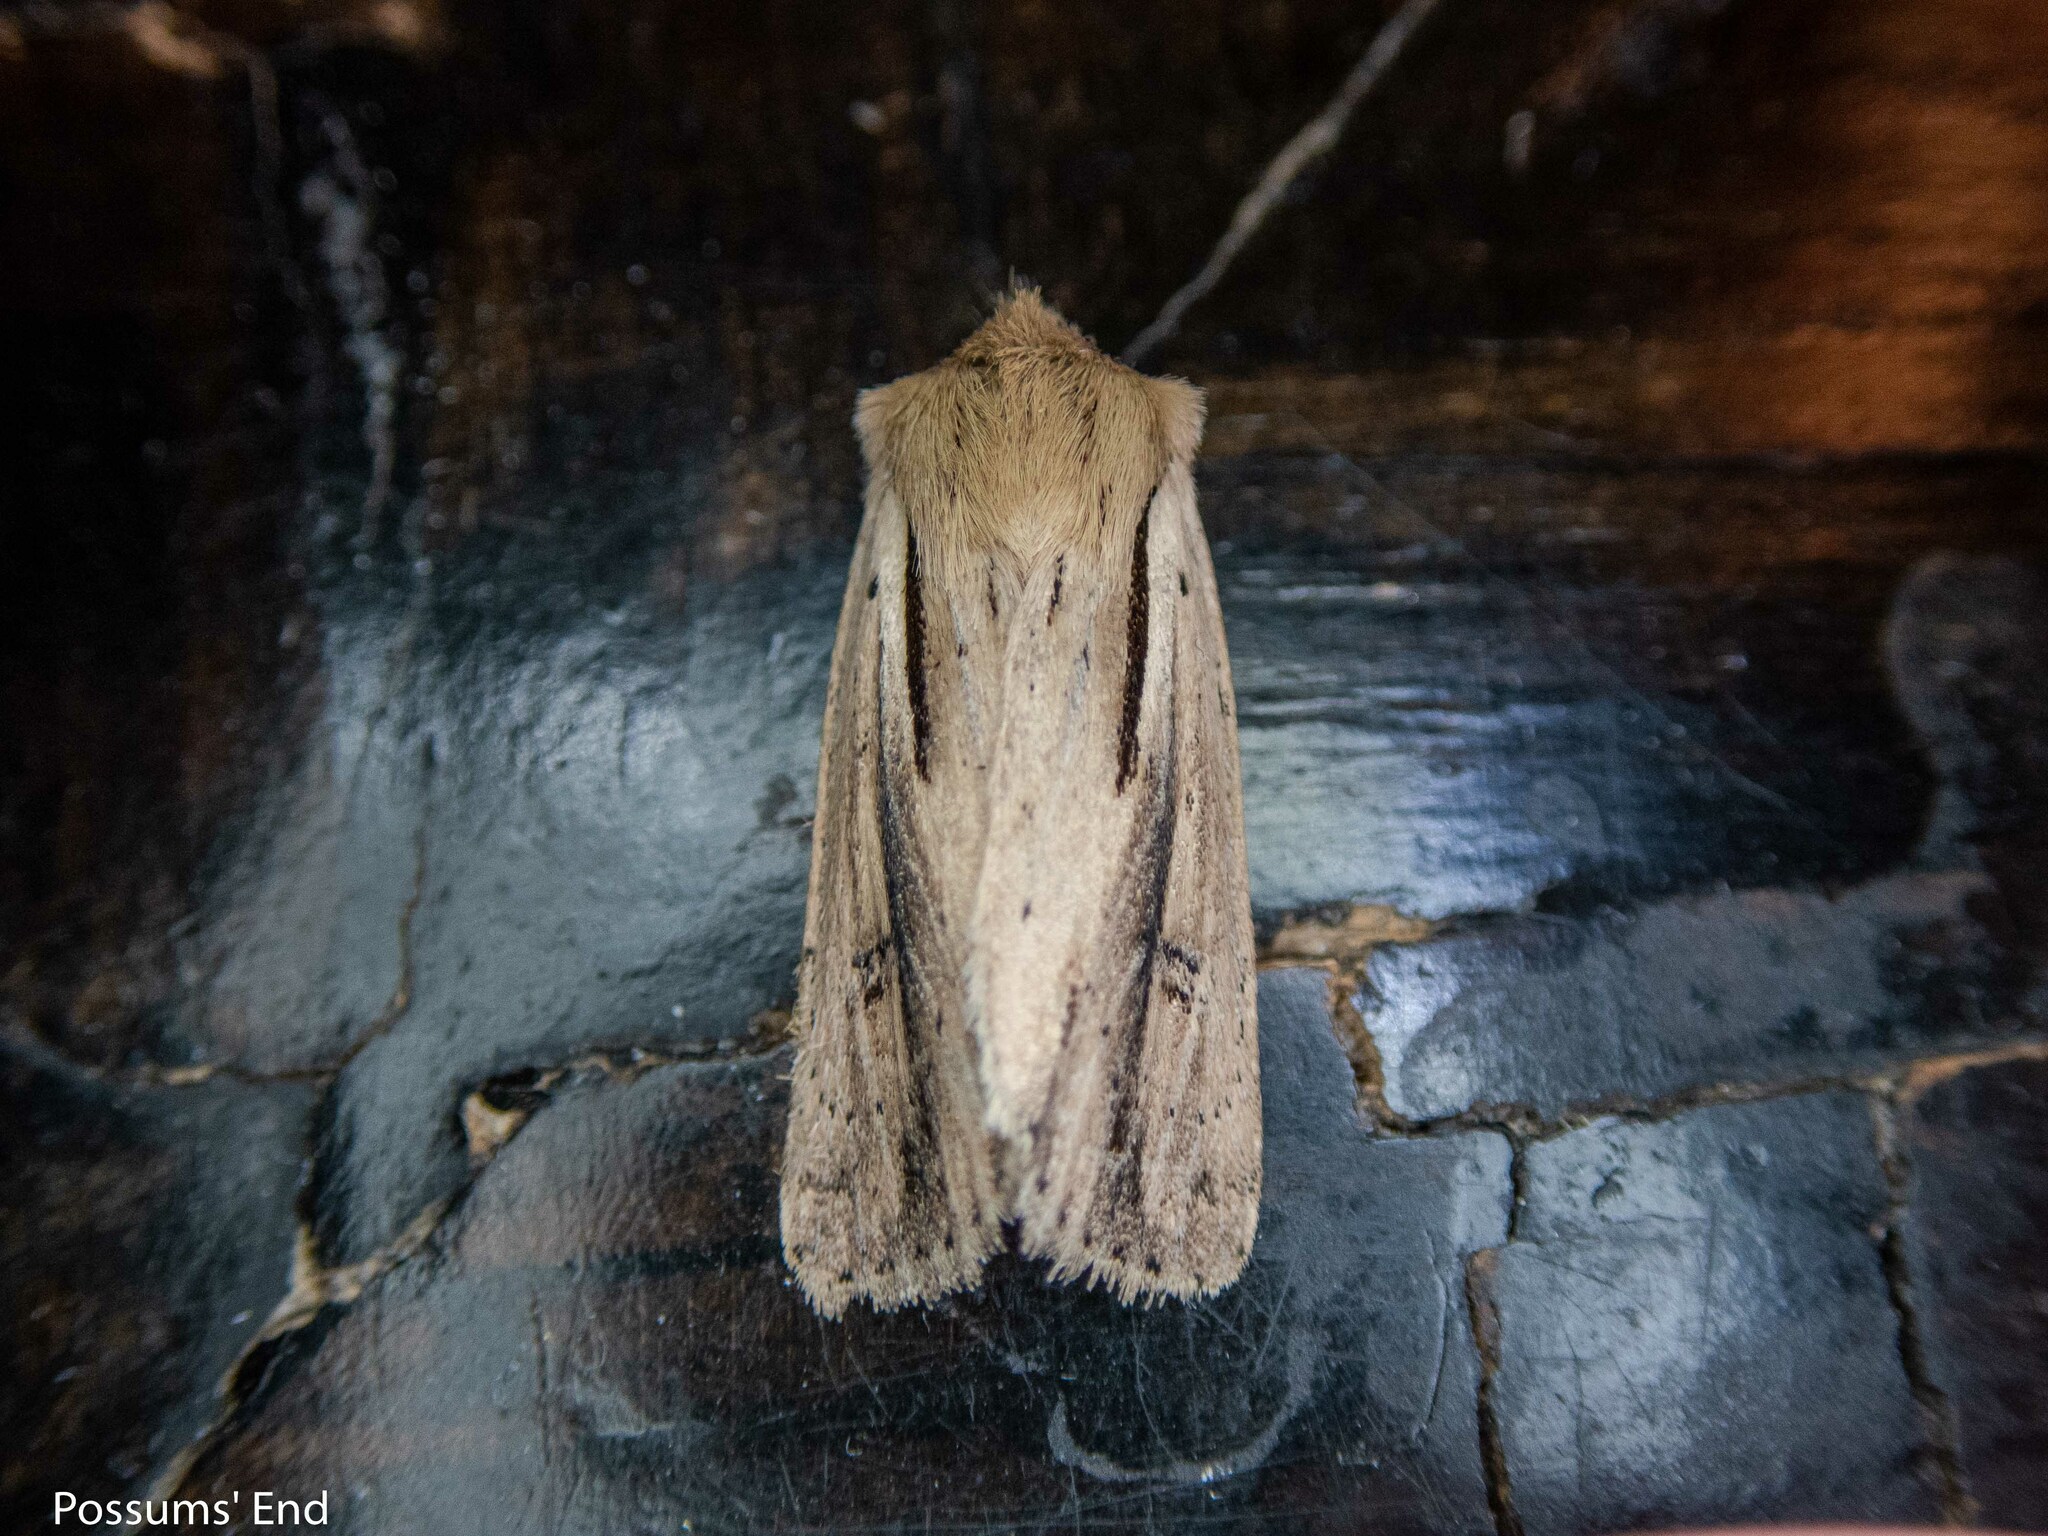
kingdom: Animalia
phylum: Arthropoda
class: Insecta
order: Lepidoptera
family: Noctuidae
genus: Ichneutica
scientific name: Ichneutica propria
